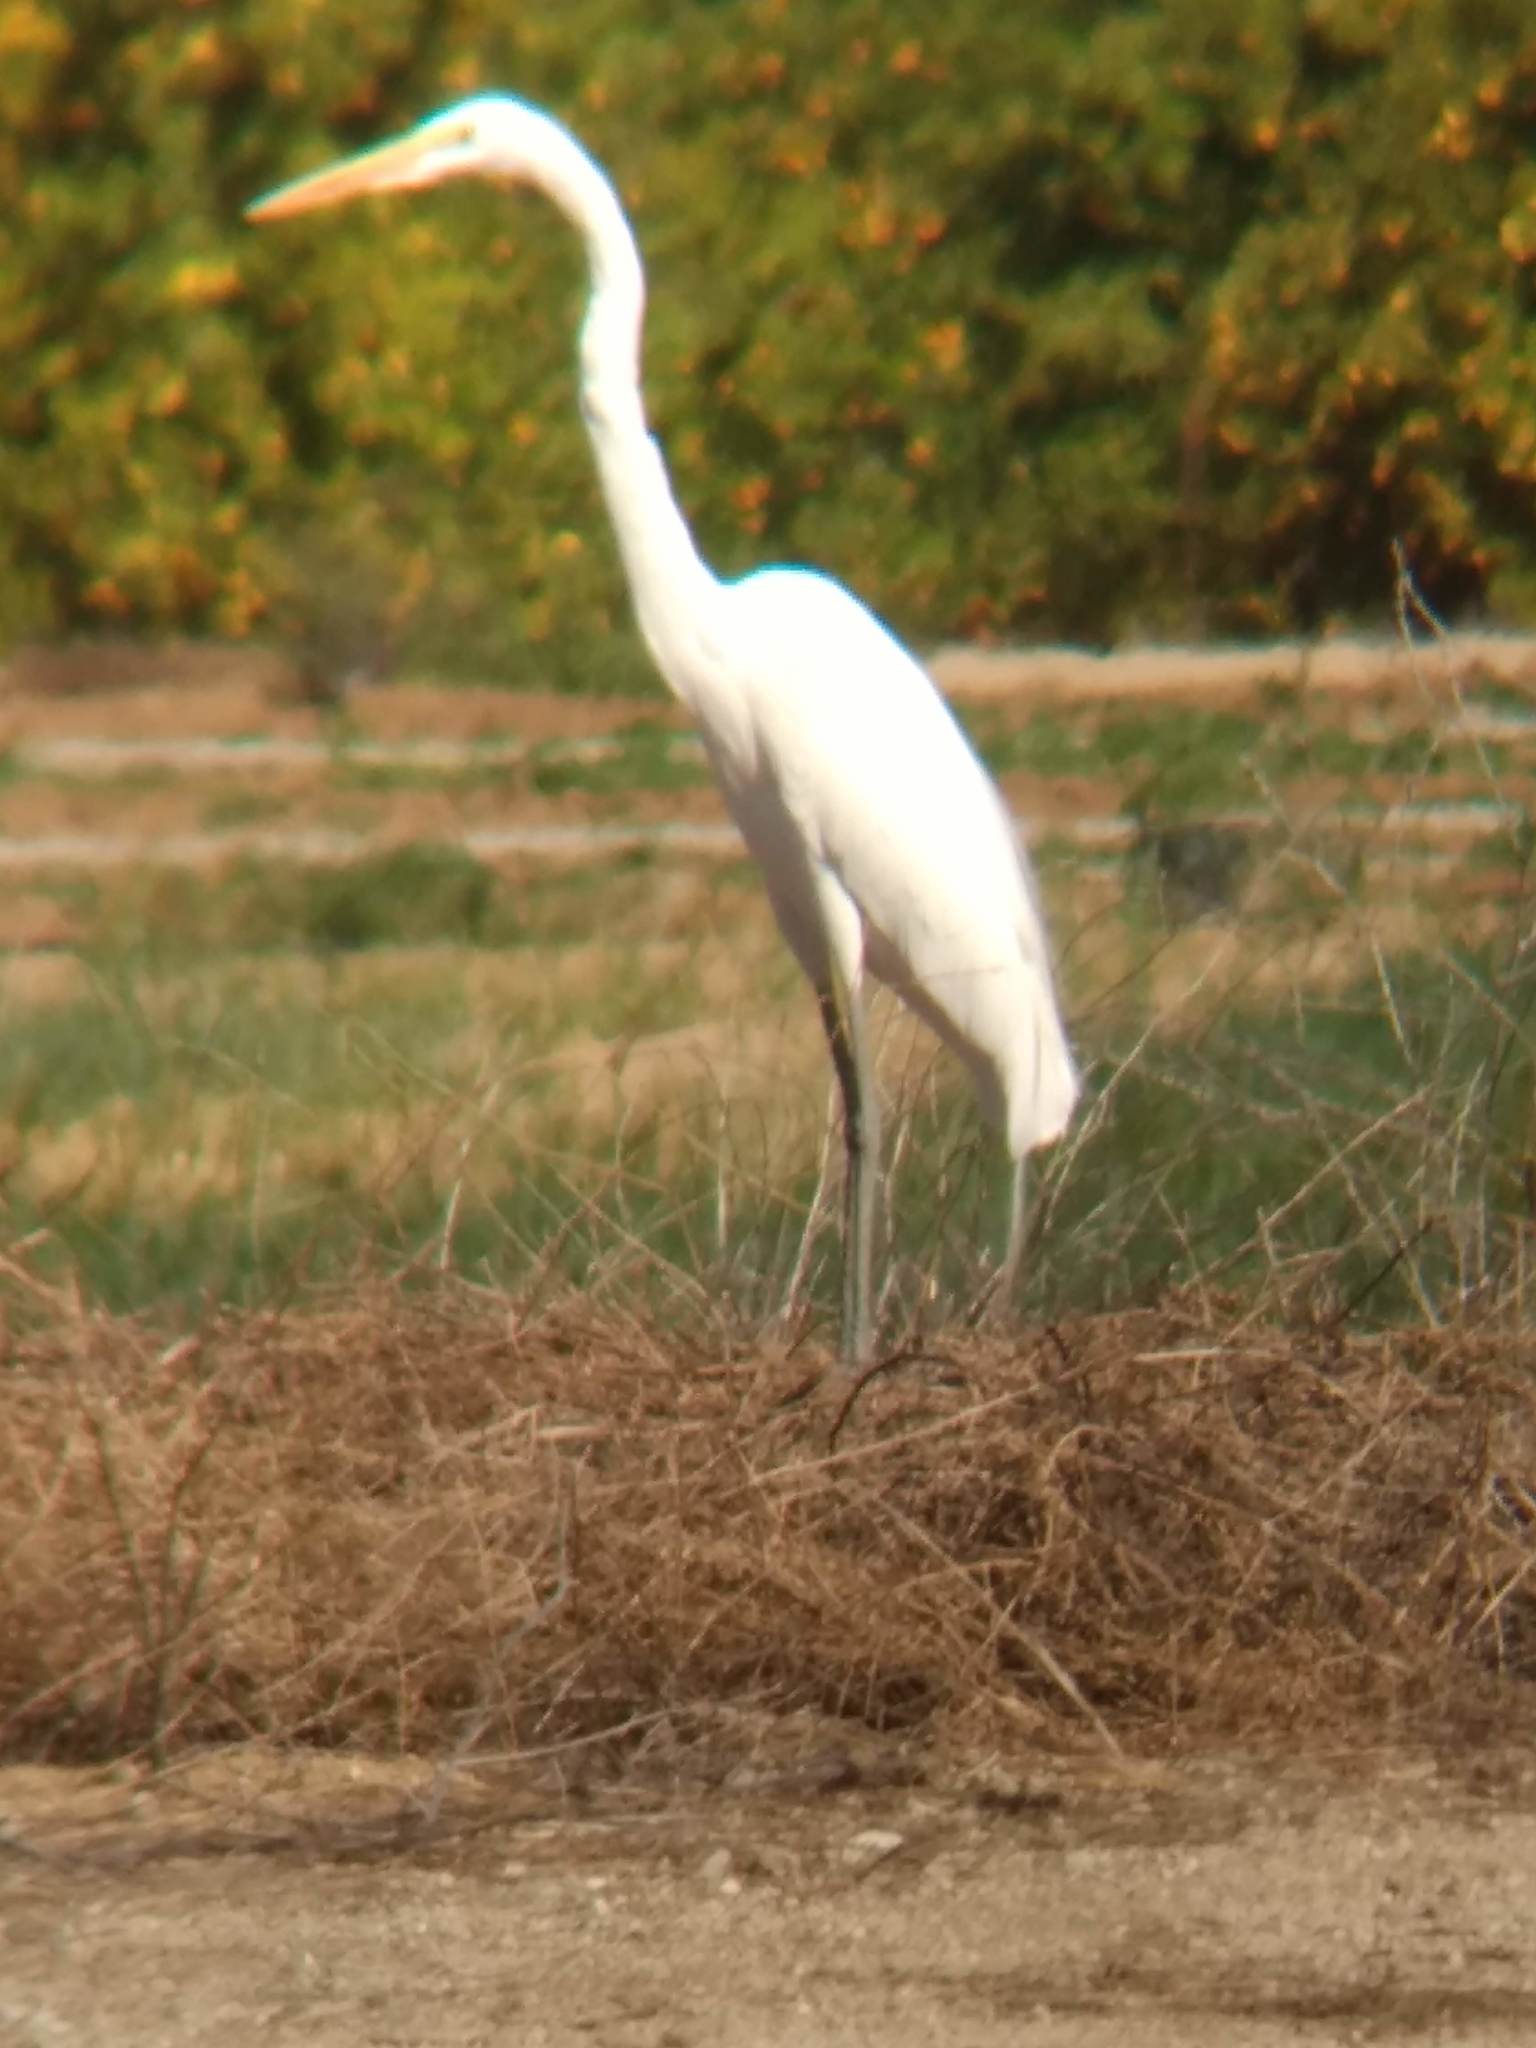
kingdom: Animalia
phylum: Chordata
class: Aves
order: Pelecaniformes
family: Ardeidae
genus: Ardea
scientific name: Ardea alba
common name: Great egret
